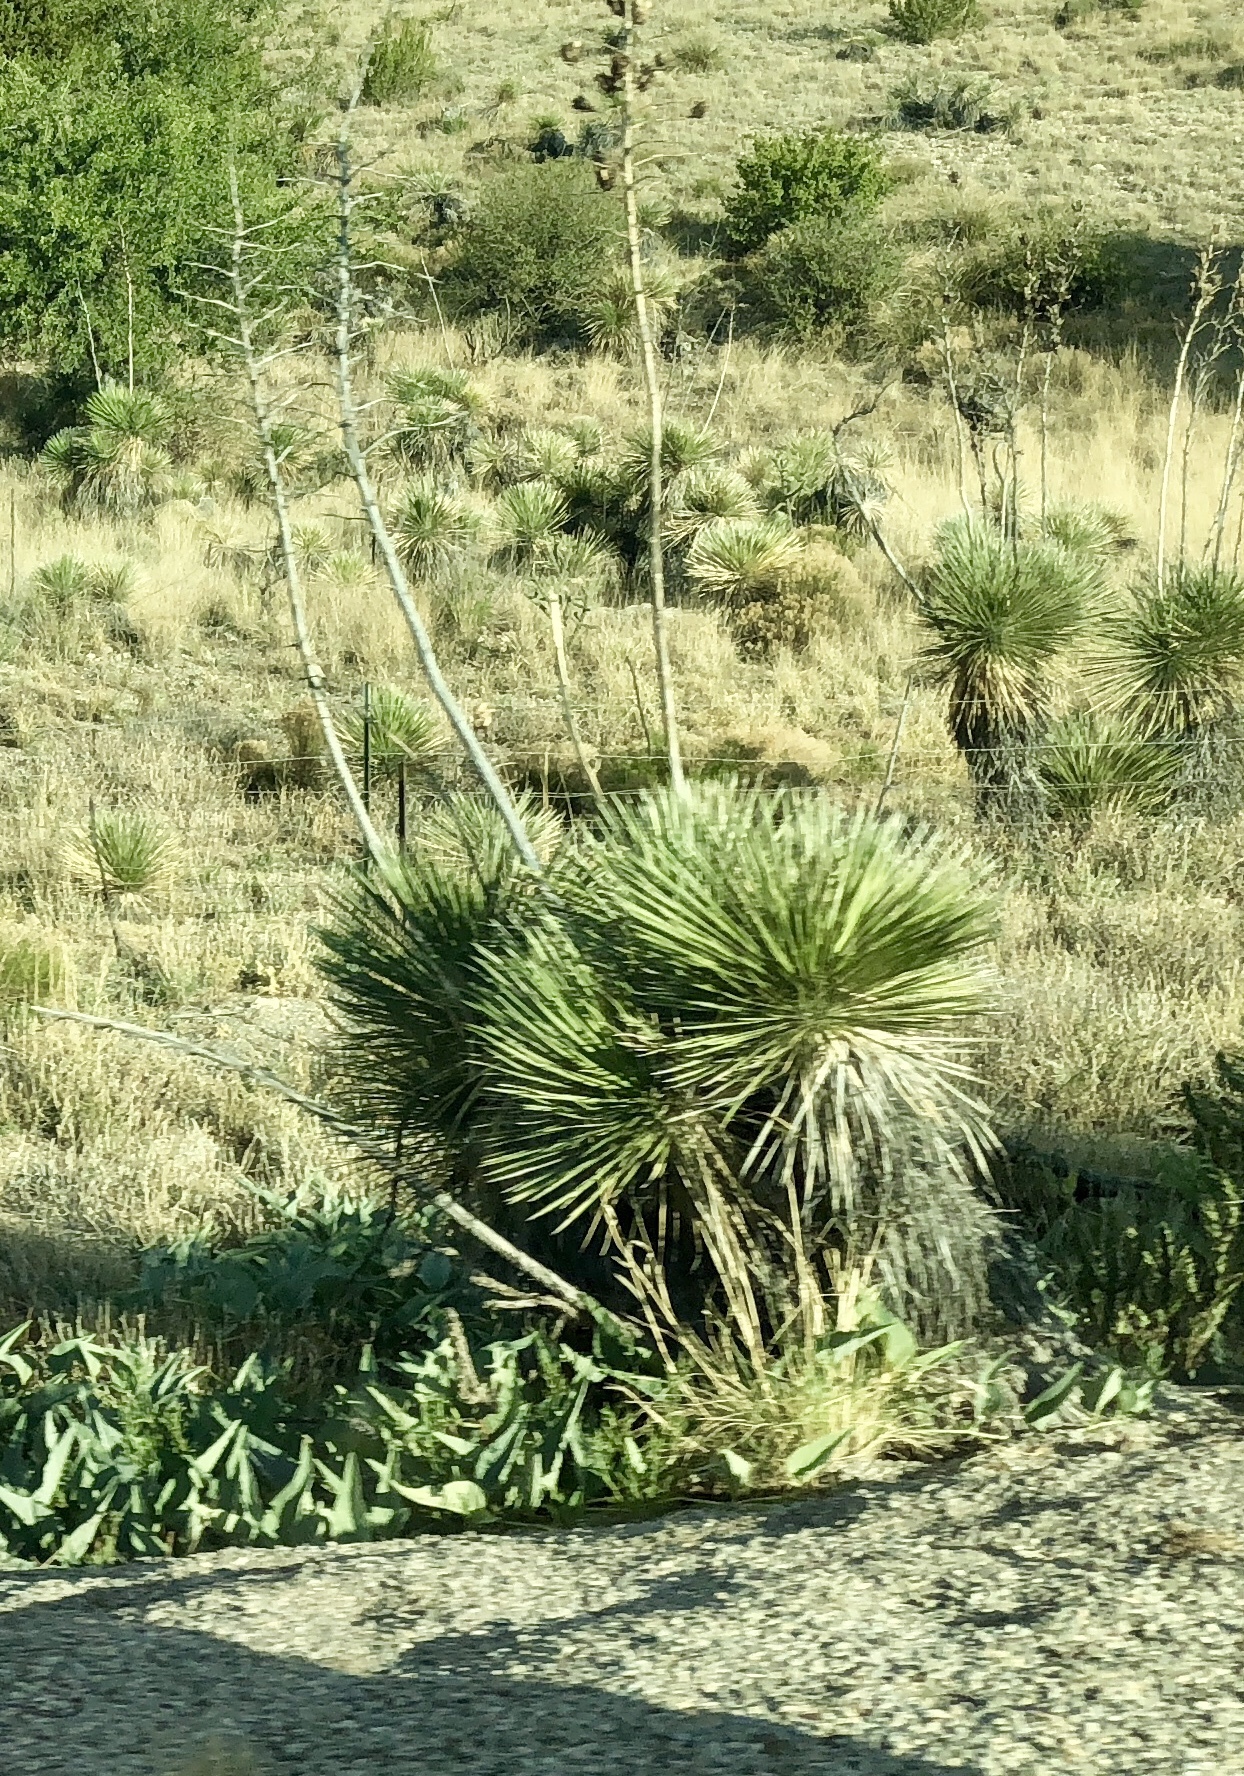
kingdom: Plantae
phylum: Tracheophyta
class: Liliopsida
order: Asparagales
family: Asparagaceae
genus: Yucca
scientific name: Yucca elata
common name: Palmella
